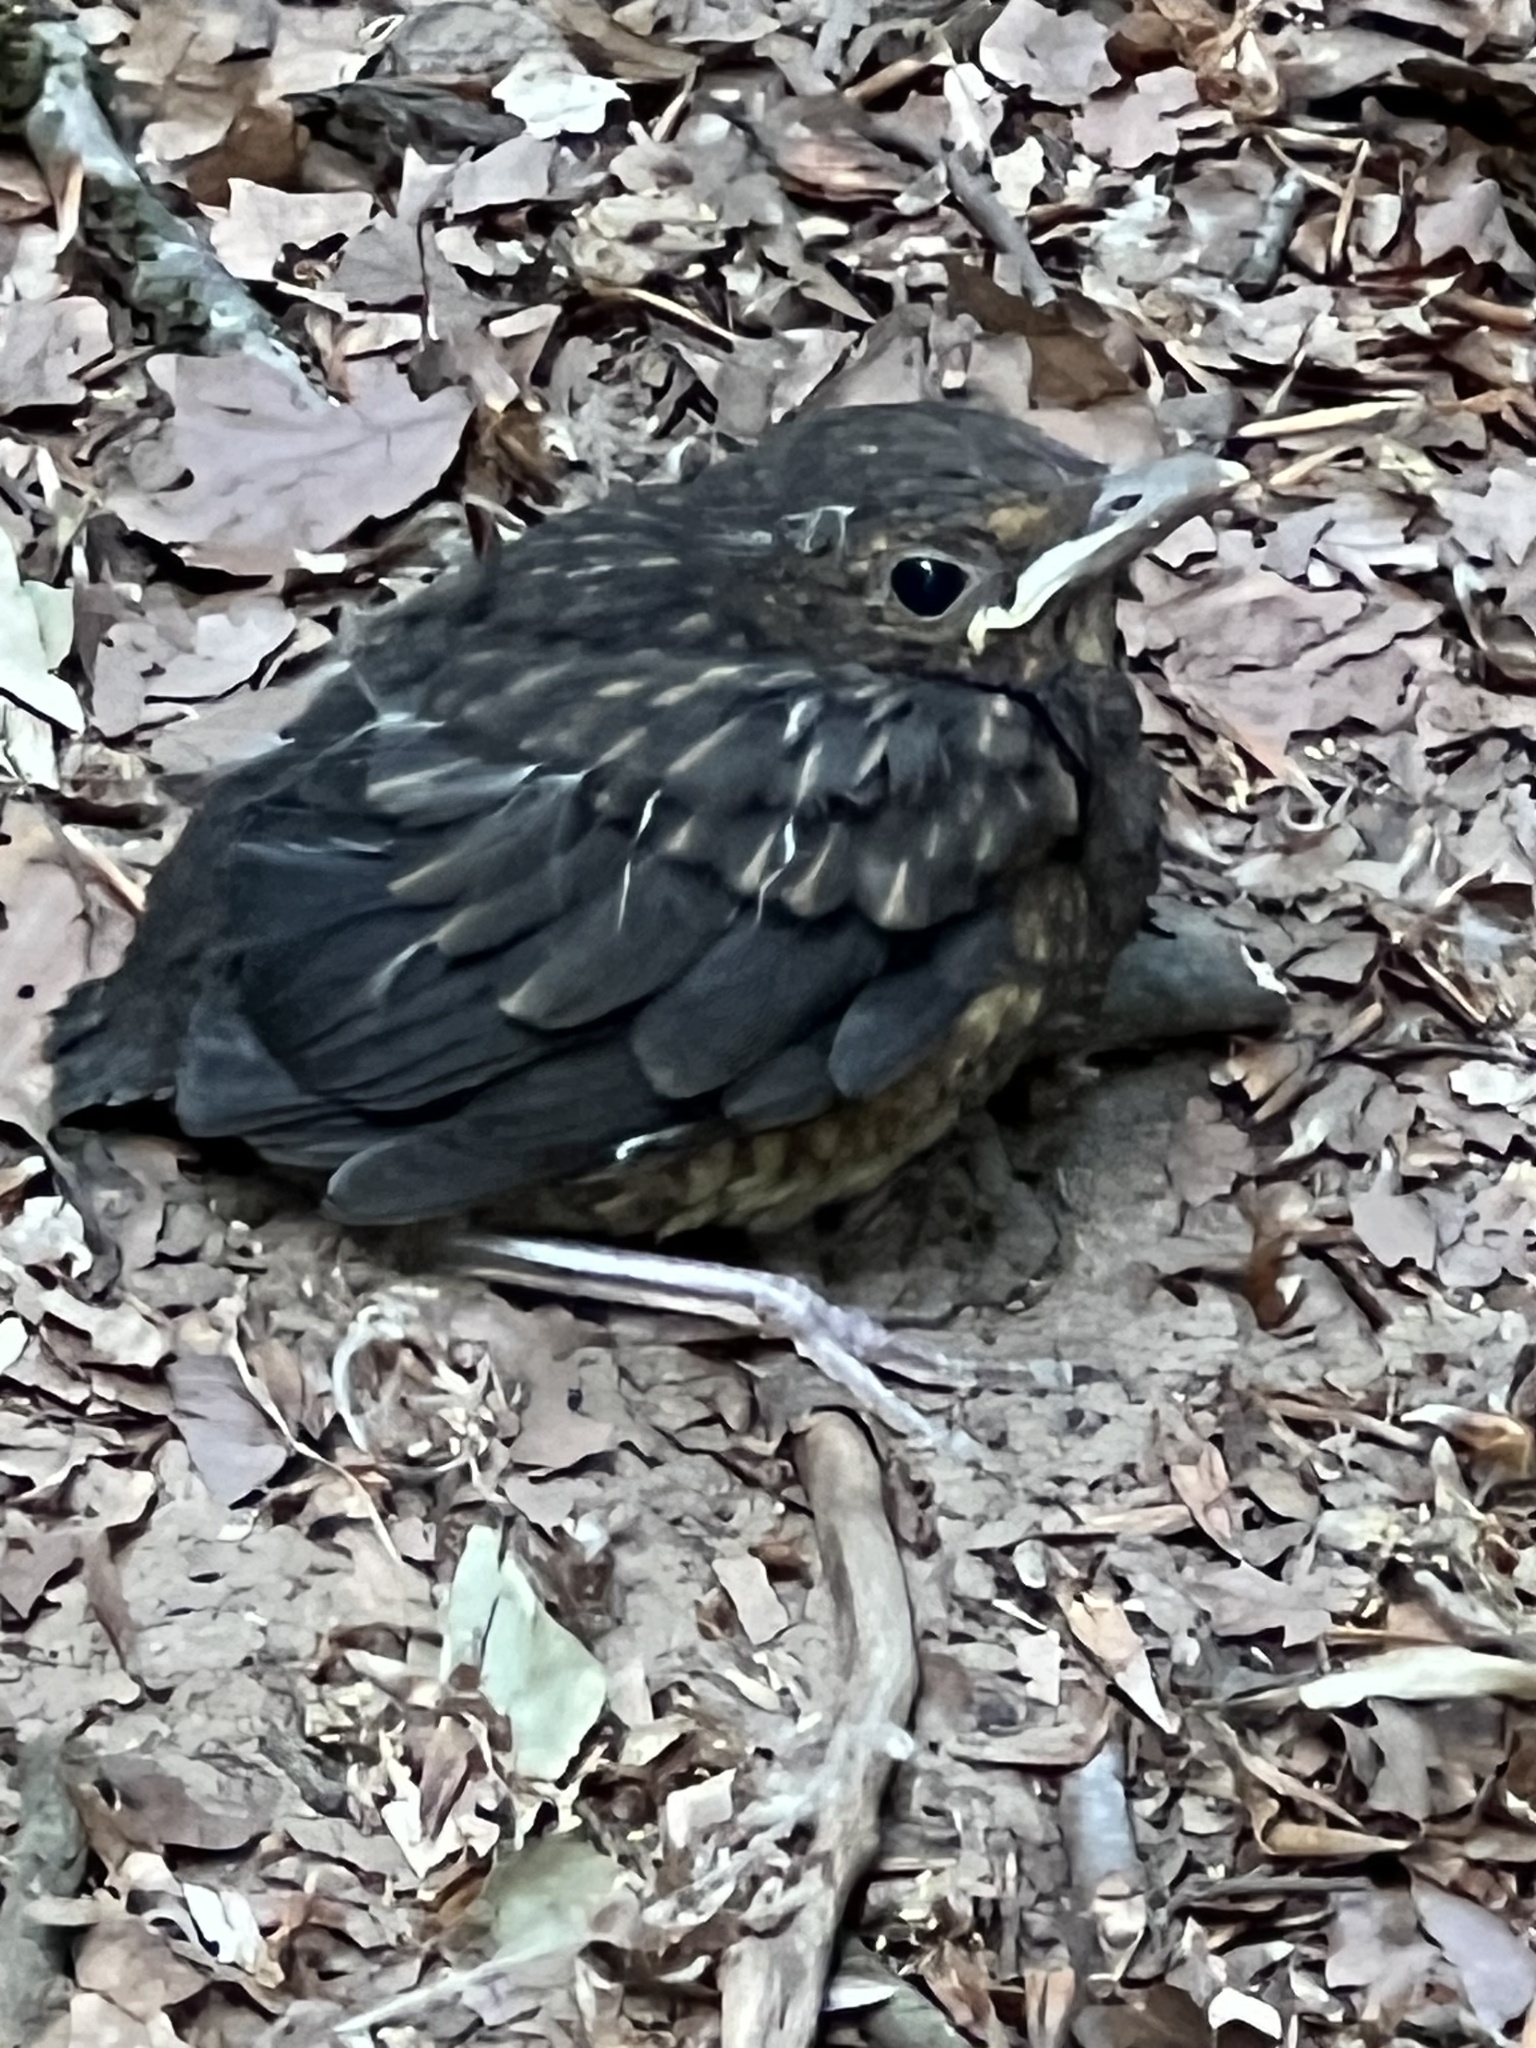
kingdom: Animalia
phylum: Chordata
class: Aves
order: Passeriformes
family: Turdidae
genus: Turdus
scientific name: Turdus merula
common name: Common blackbird
